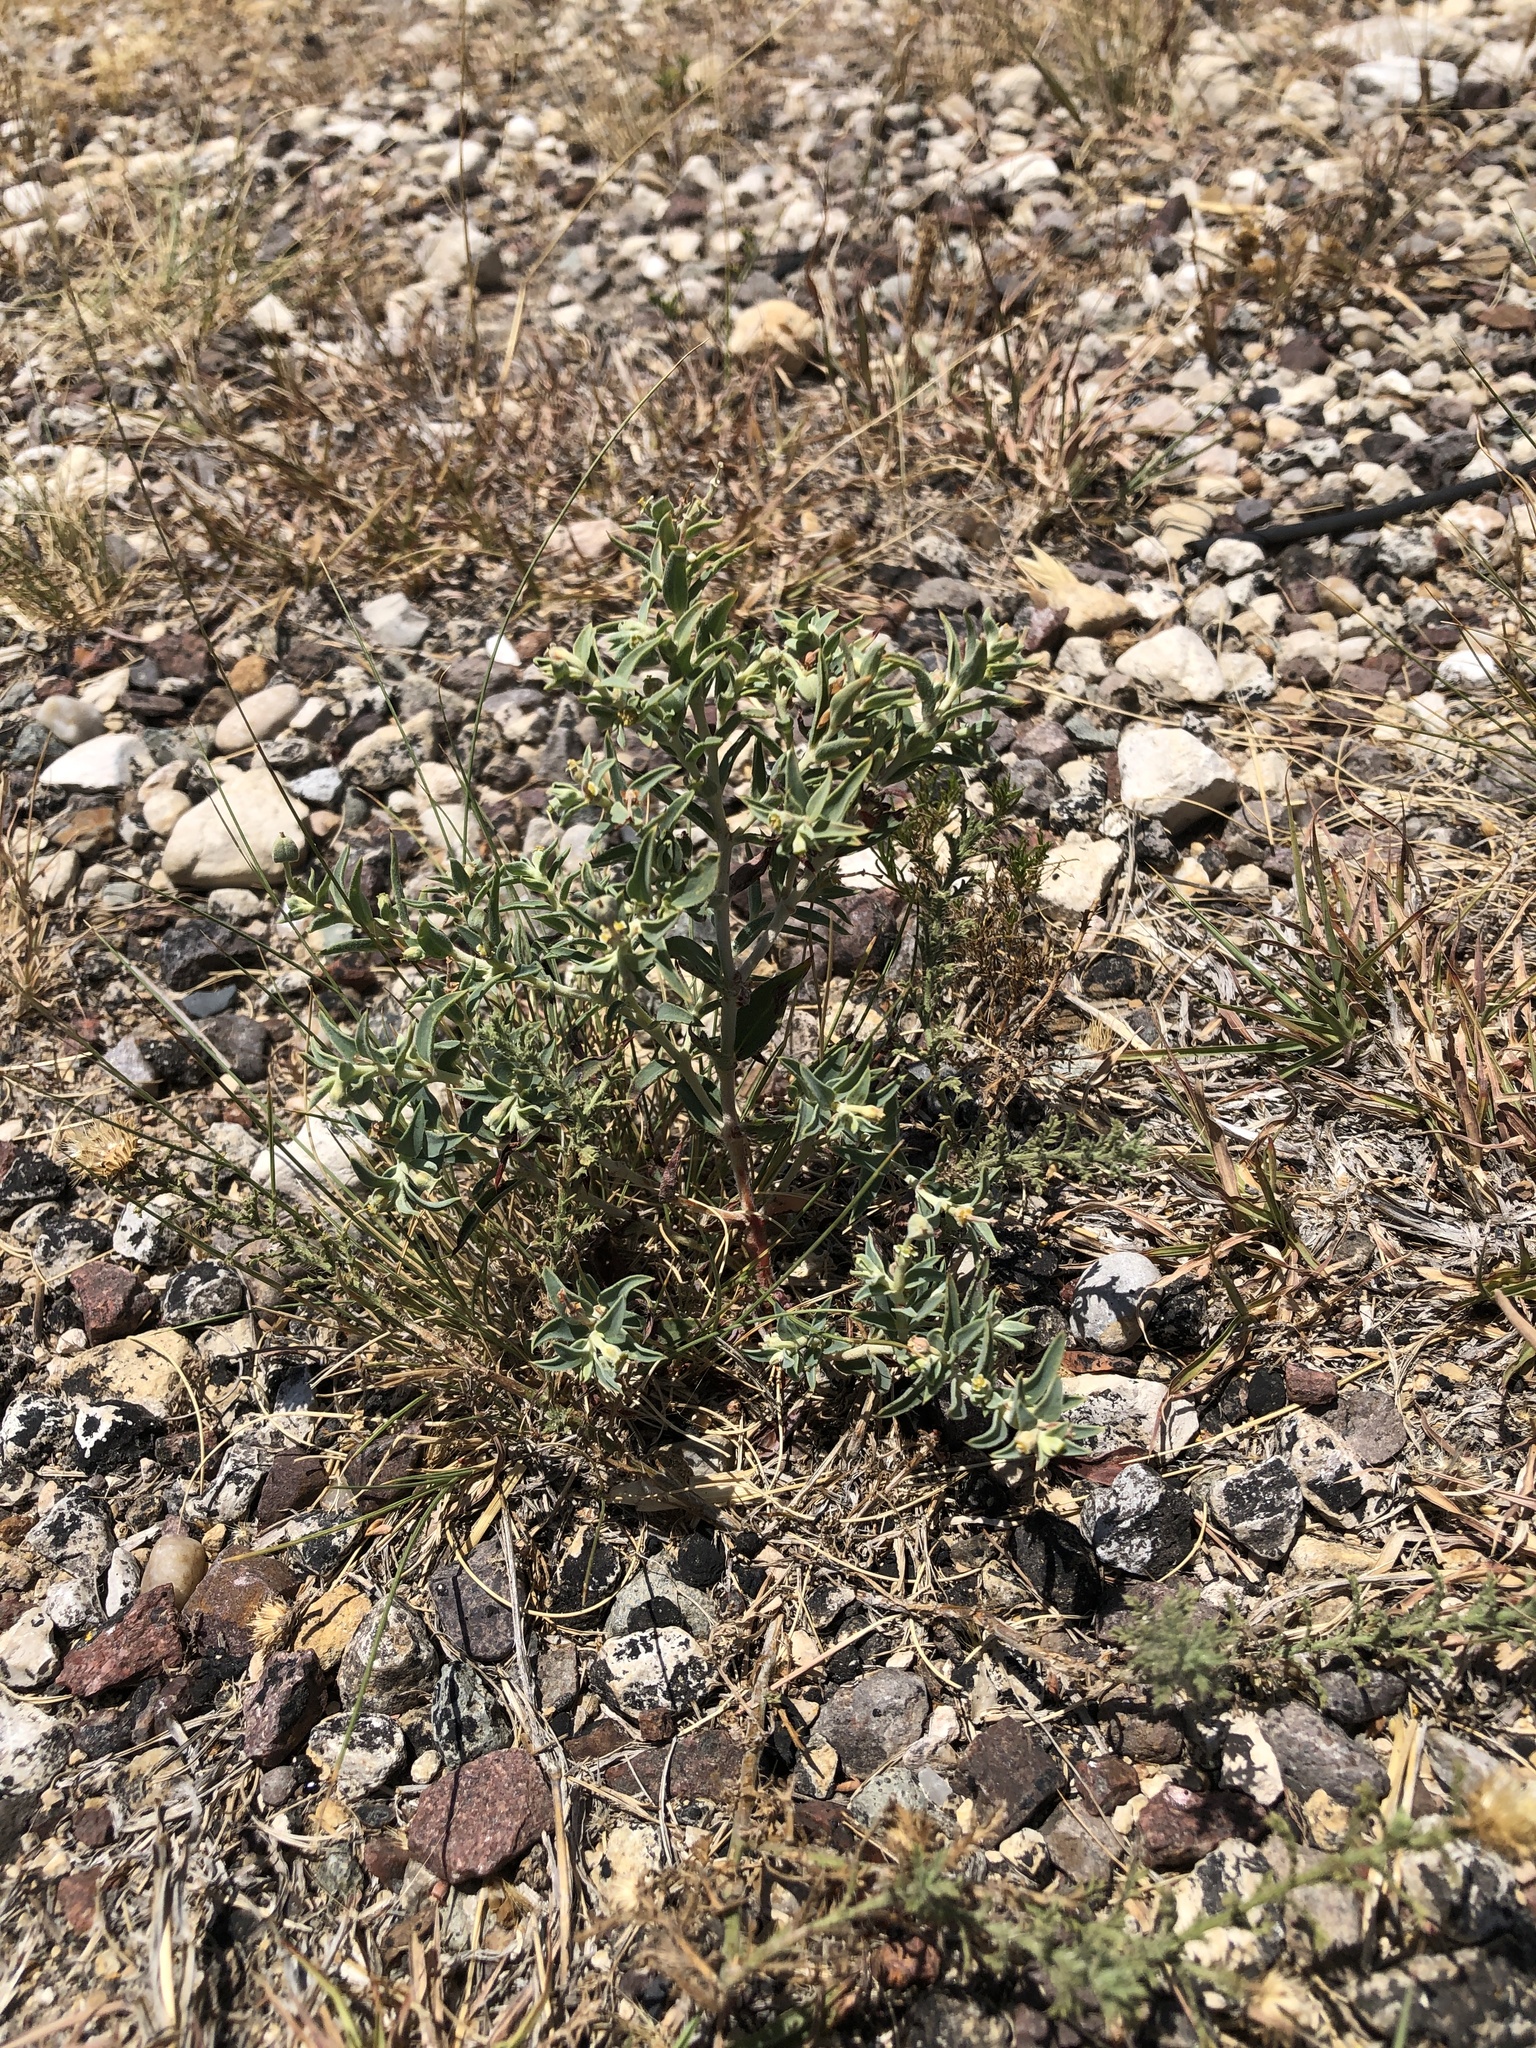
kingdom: Plantae
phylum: Tracheophyta
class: Magnoliopsida
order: Malpighiales
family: Euphorbiaceae
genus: Euphorbia
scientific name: Euphorbia acuta
